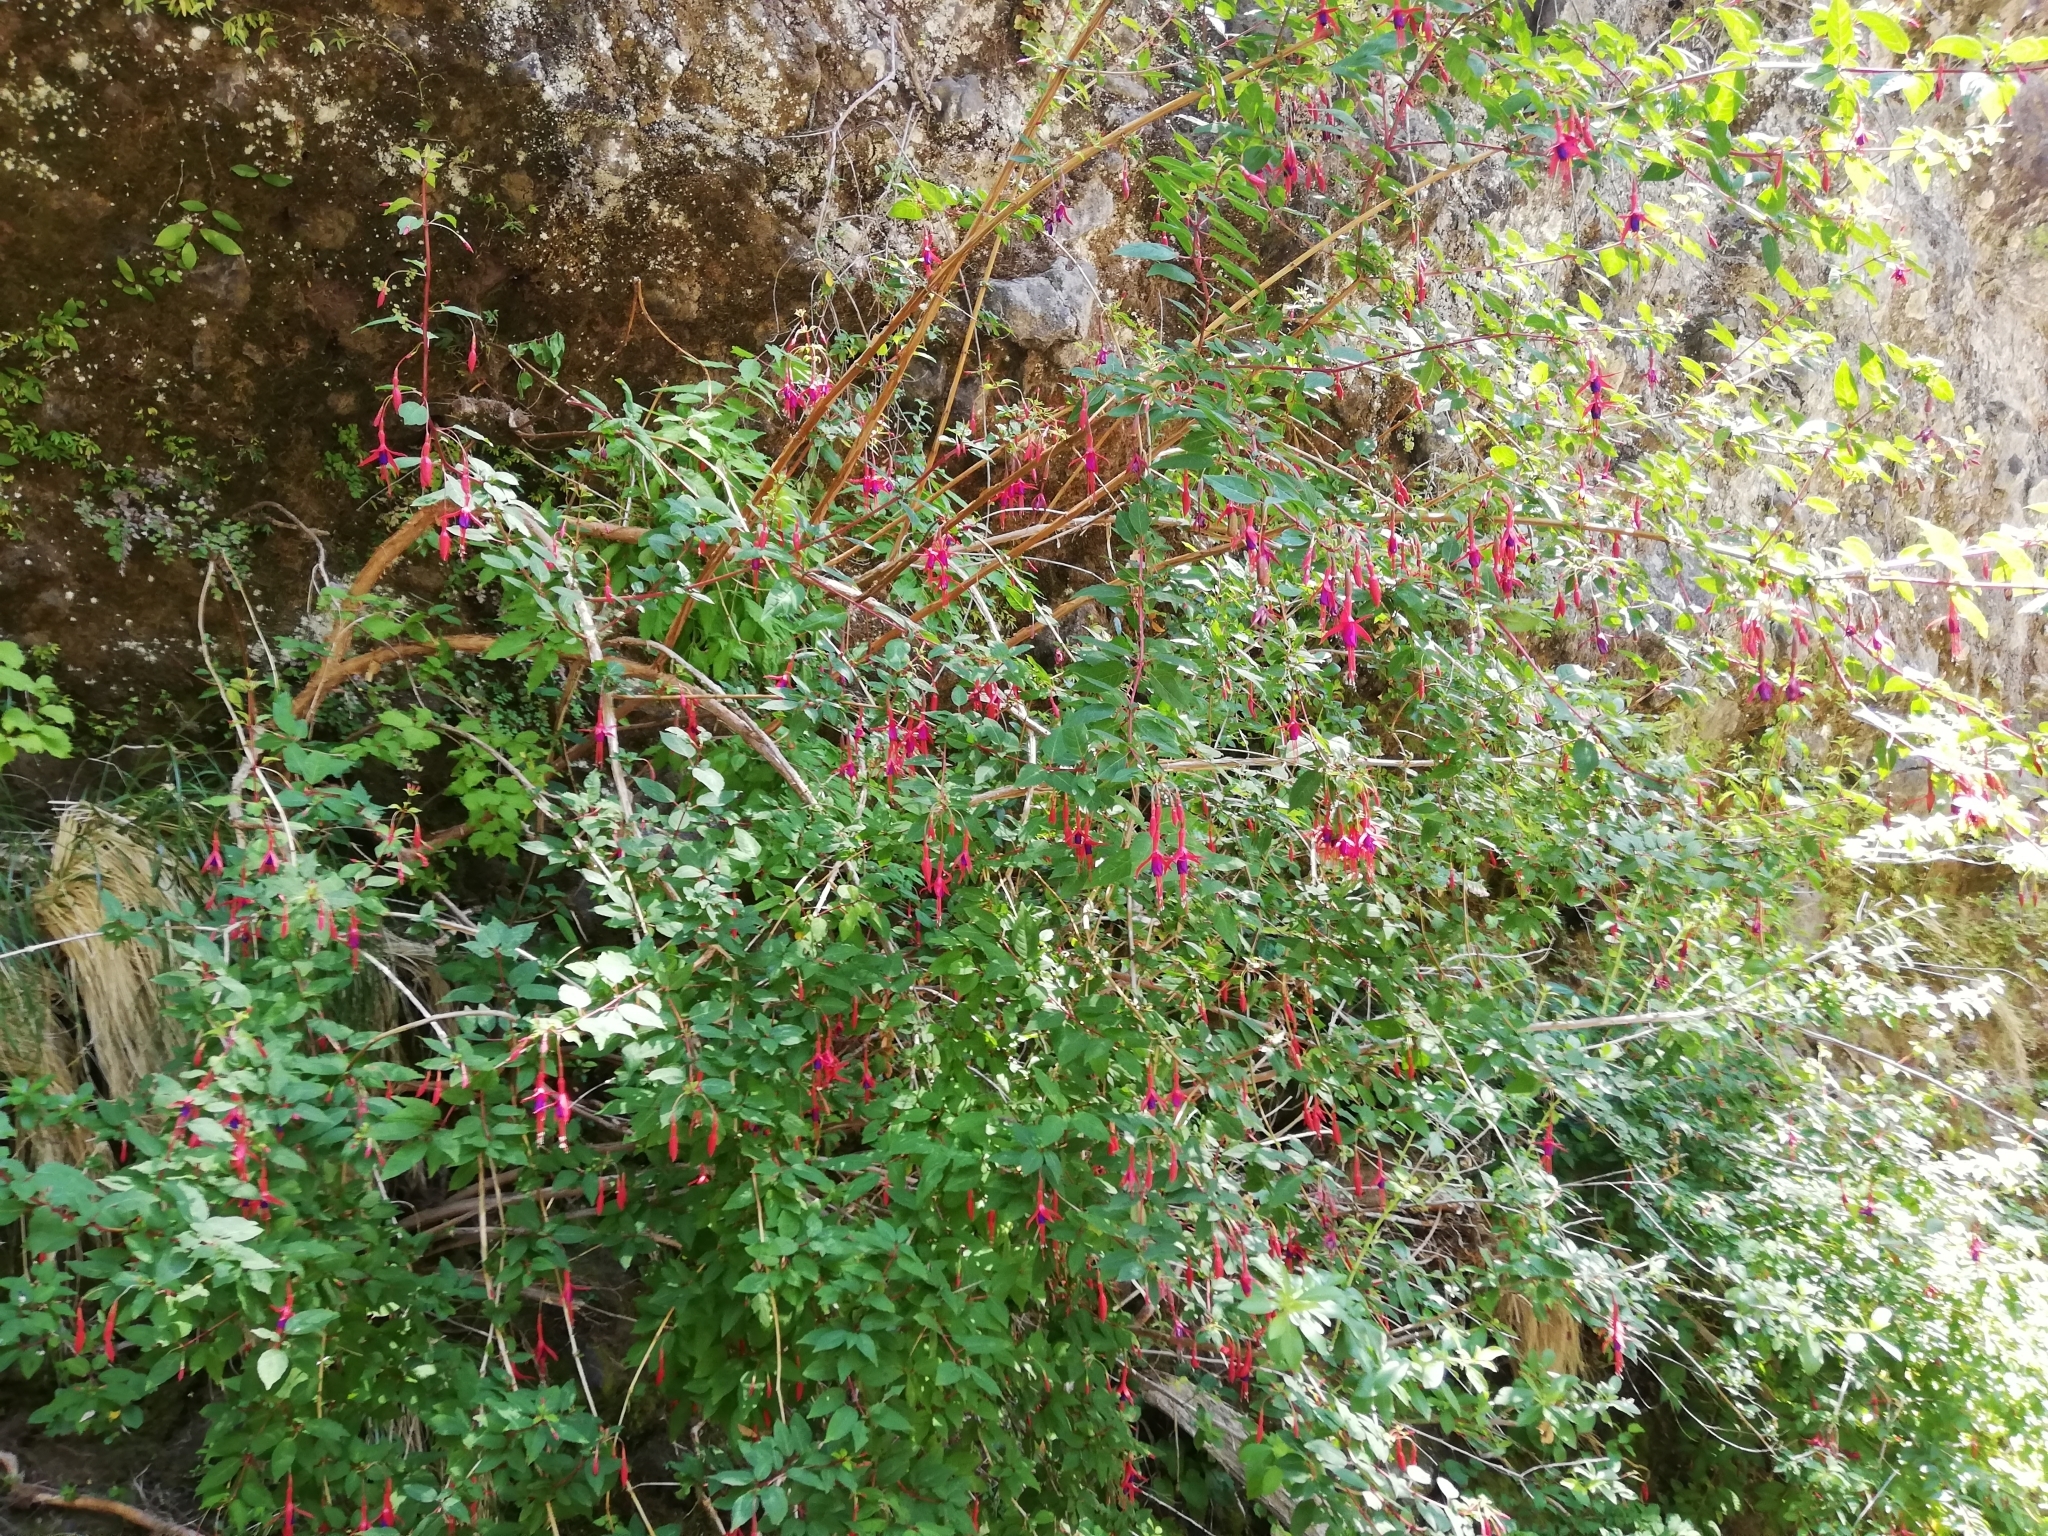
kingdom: Plantae
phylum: Tracheophyta
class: Magnoliopsida
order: Myrtales
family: Onagraceae
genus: Fuchsia
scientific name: Fuchsia magellanica
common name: Hardy fuchsia
